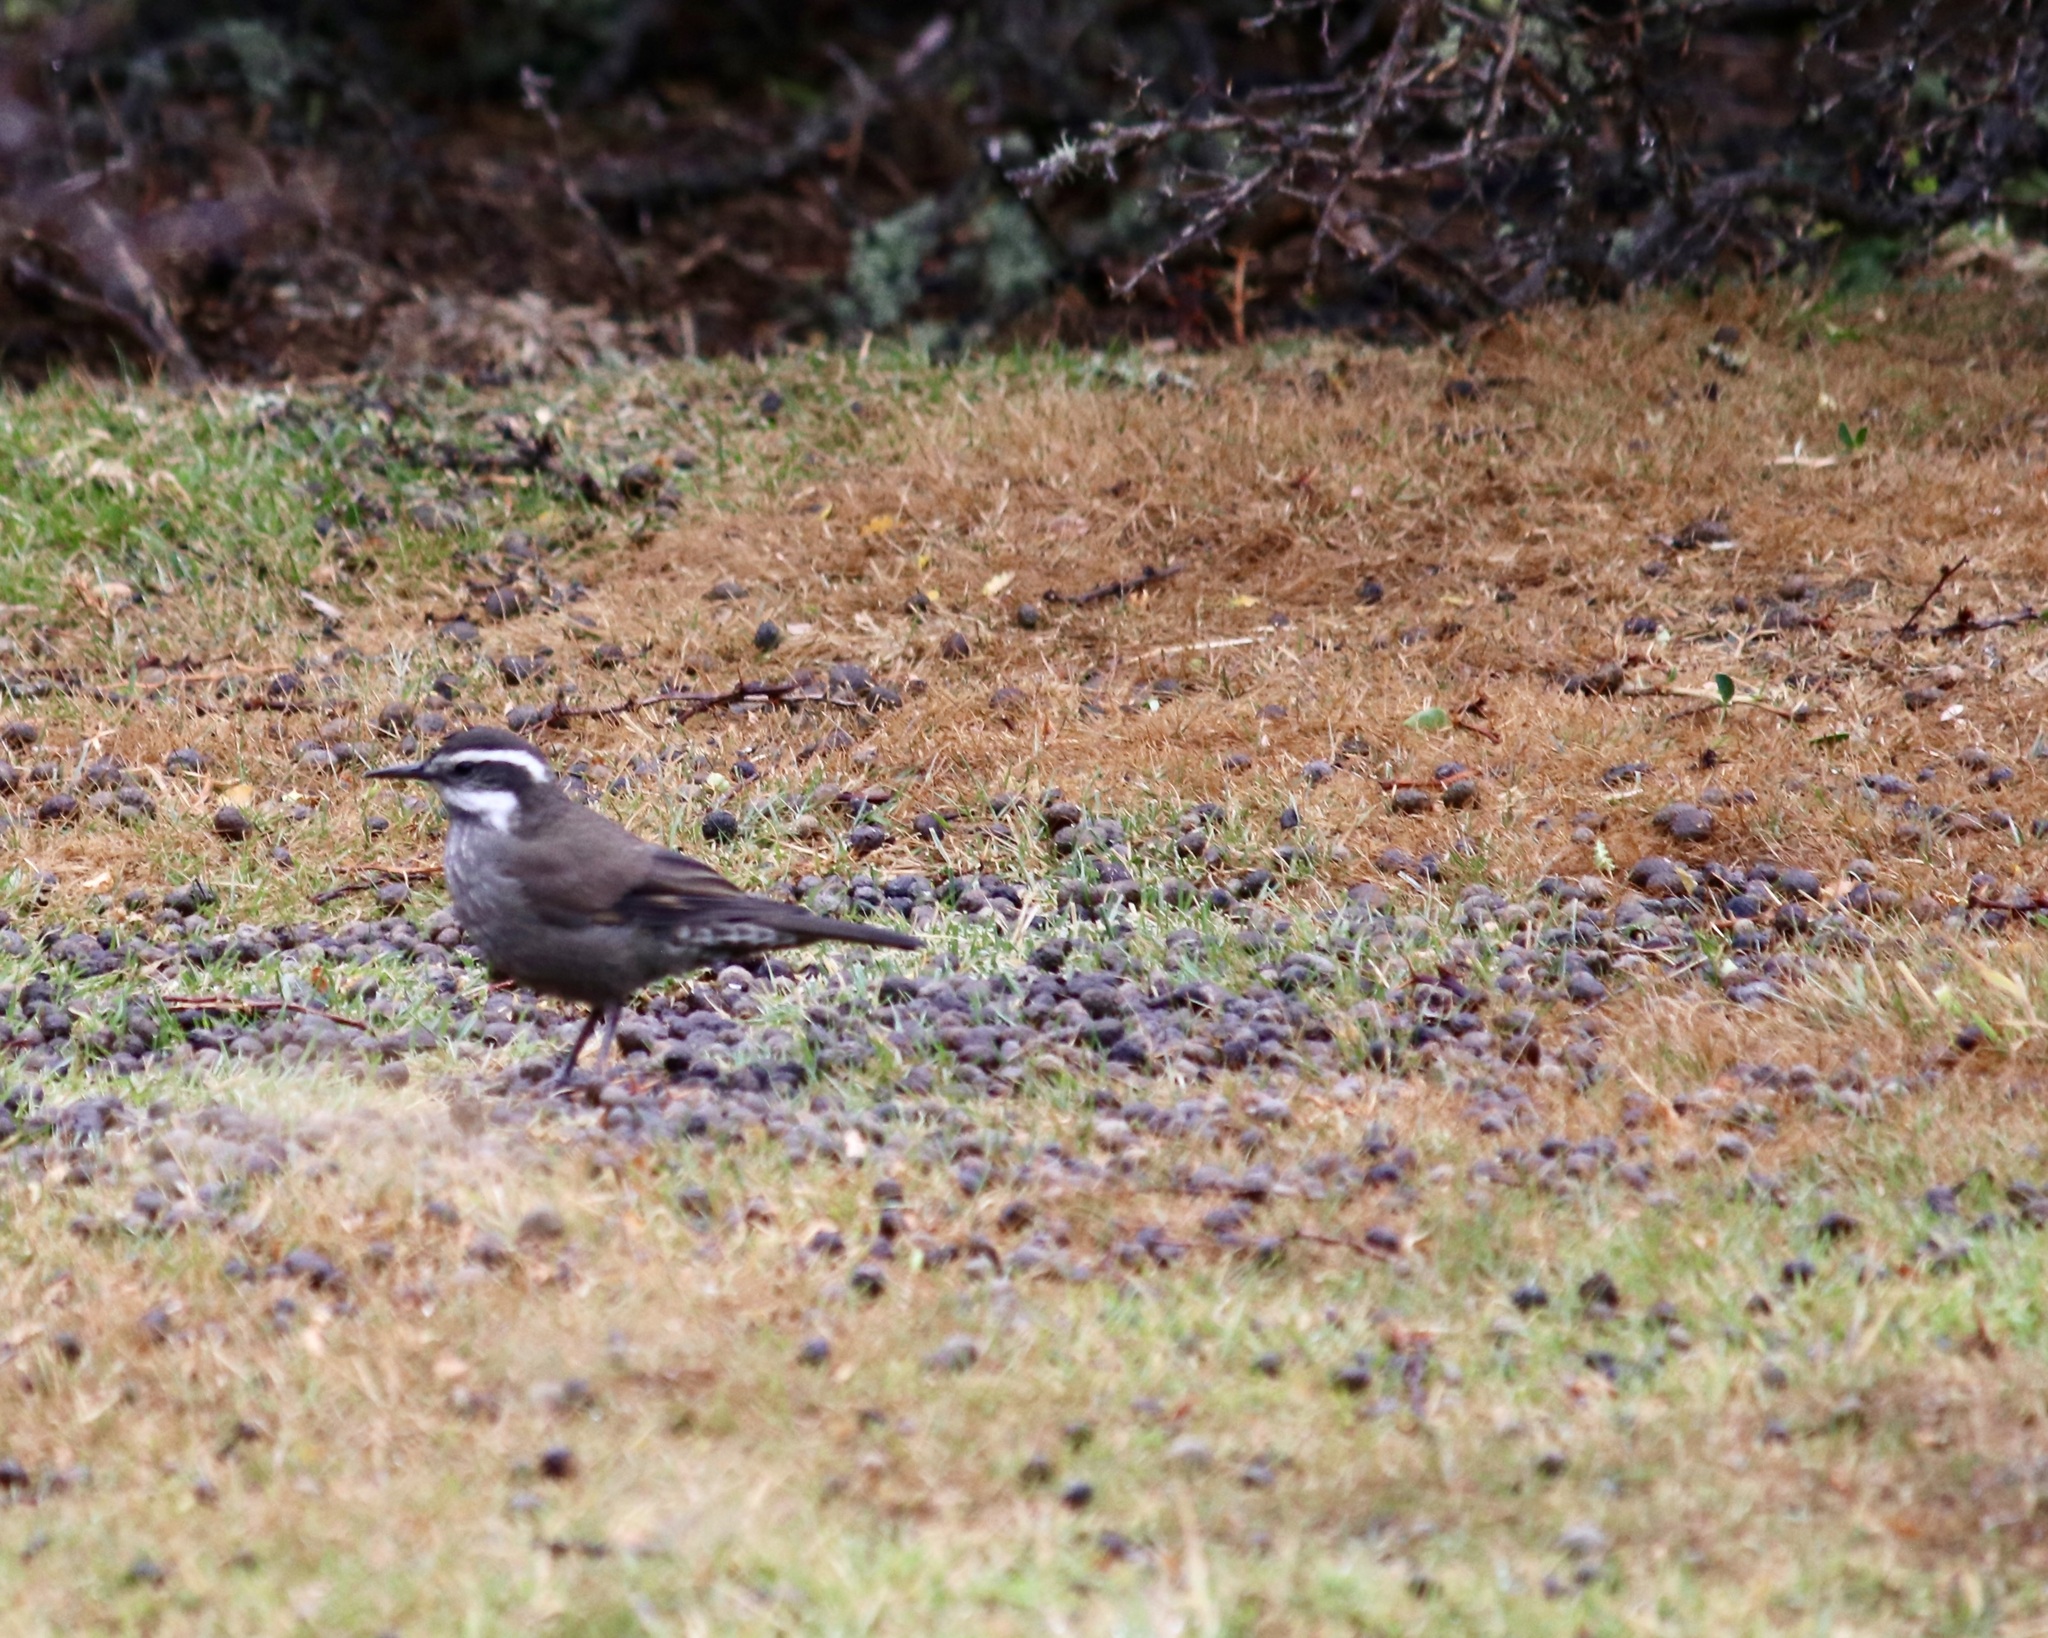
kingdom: Animalia
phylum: Chordata
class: Aves
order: Passeriformes
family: Furnariidae
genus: Cinclodes
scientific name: Cinclodes patagonicus
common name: Dark-bellied cinclodes
